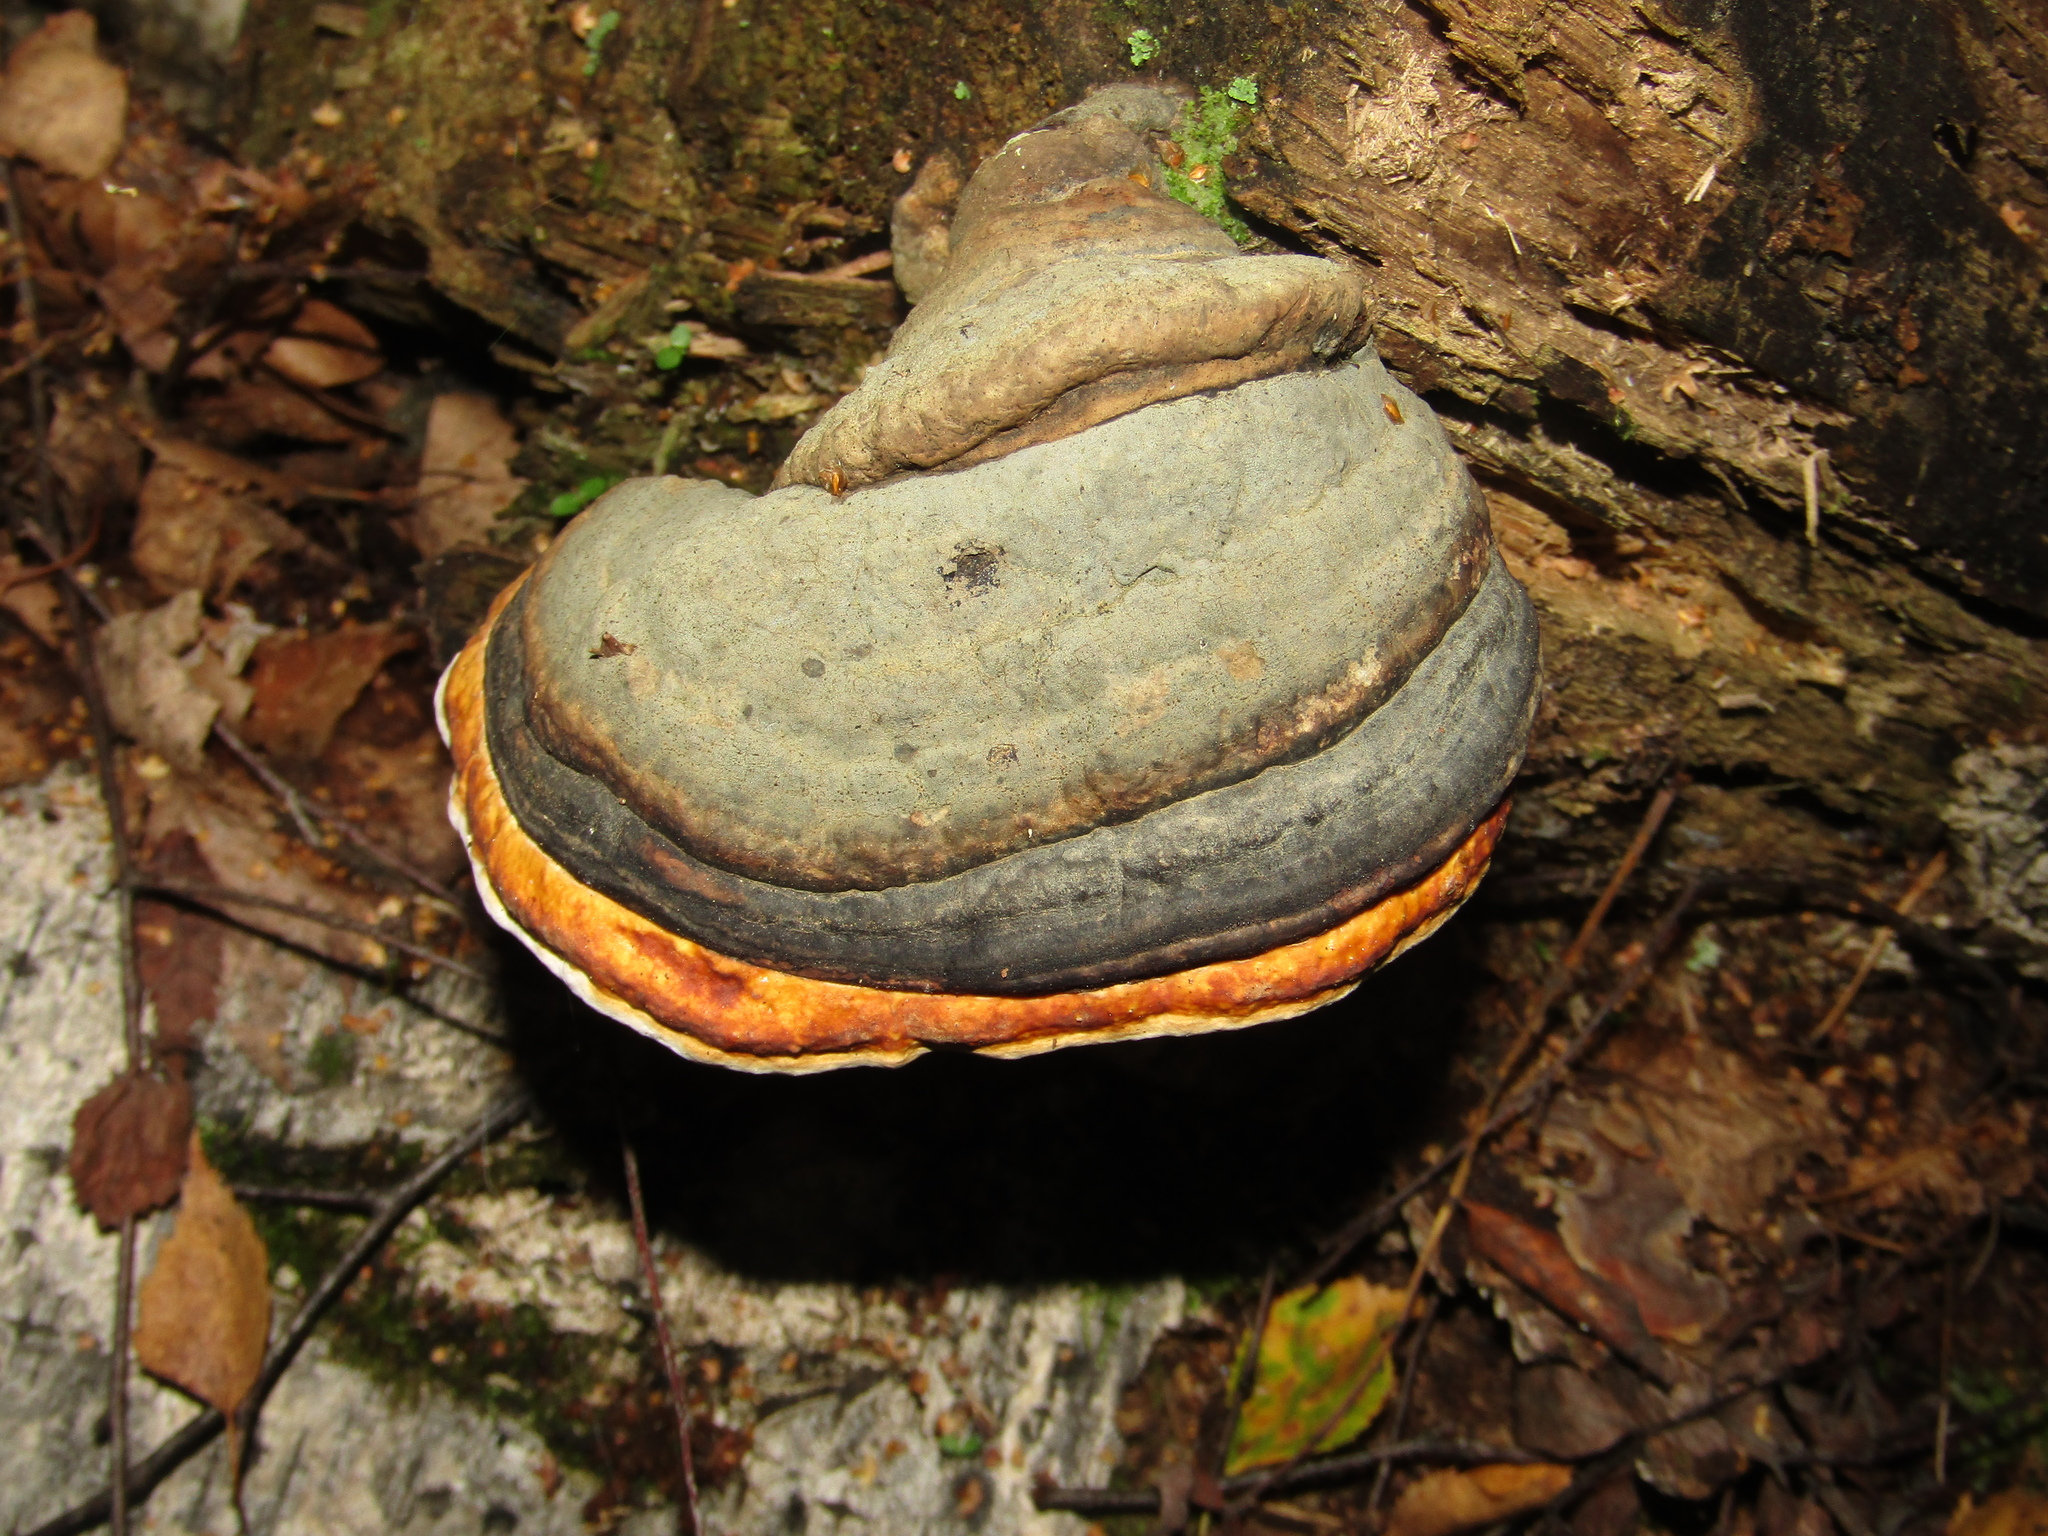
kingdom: Fungi
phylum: Basidiomycota
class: Agaricomycetes
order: Polyporales
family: Fomitopsidaceae
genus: Fomitopsis
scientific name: Fomitopsis pinicola
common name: Red-belted bracket
